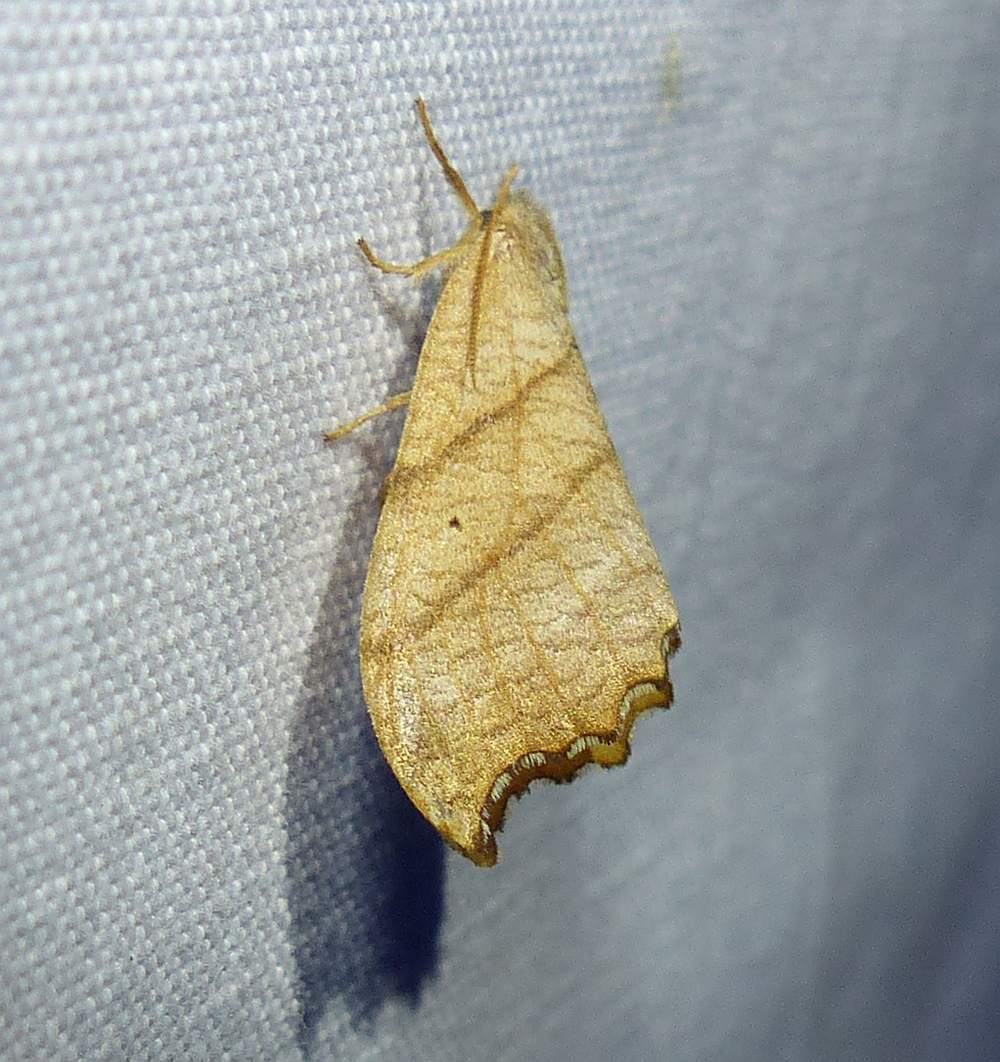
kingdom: Animalia
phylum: Arthropoda
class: Insecta
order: Lepidoptera
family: Drepanidae
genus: Falcaria
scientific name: Falcaria bilineata
